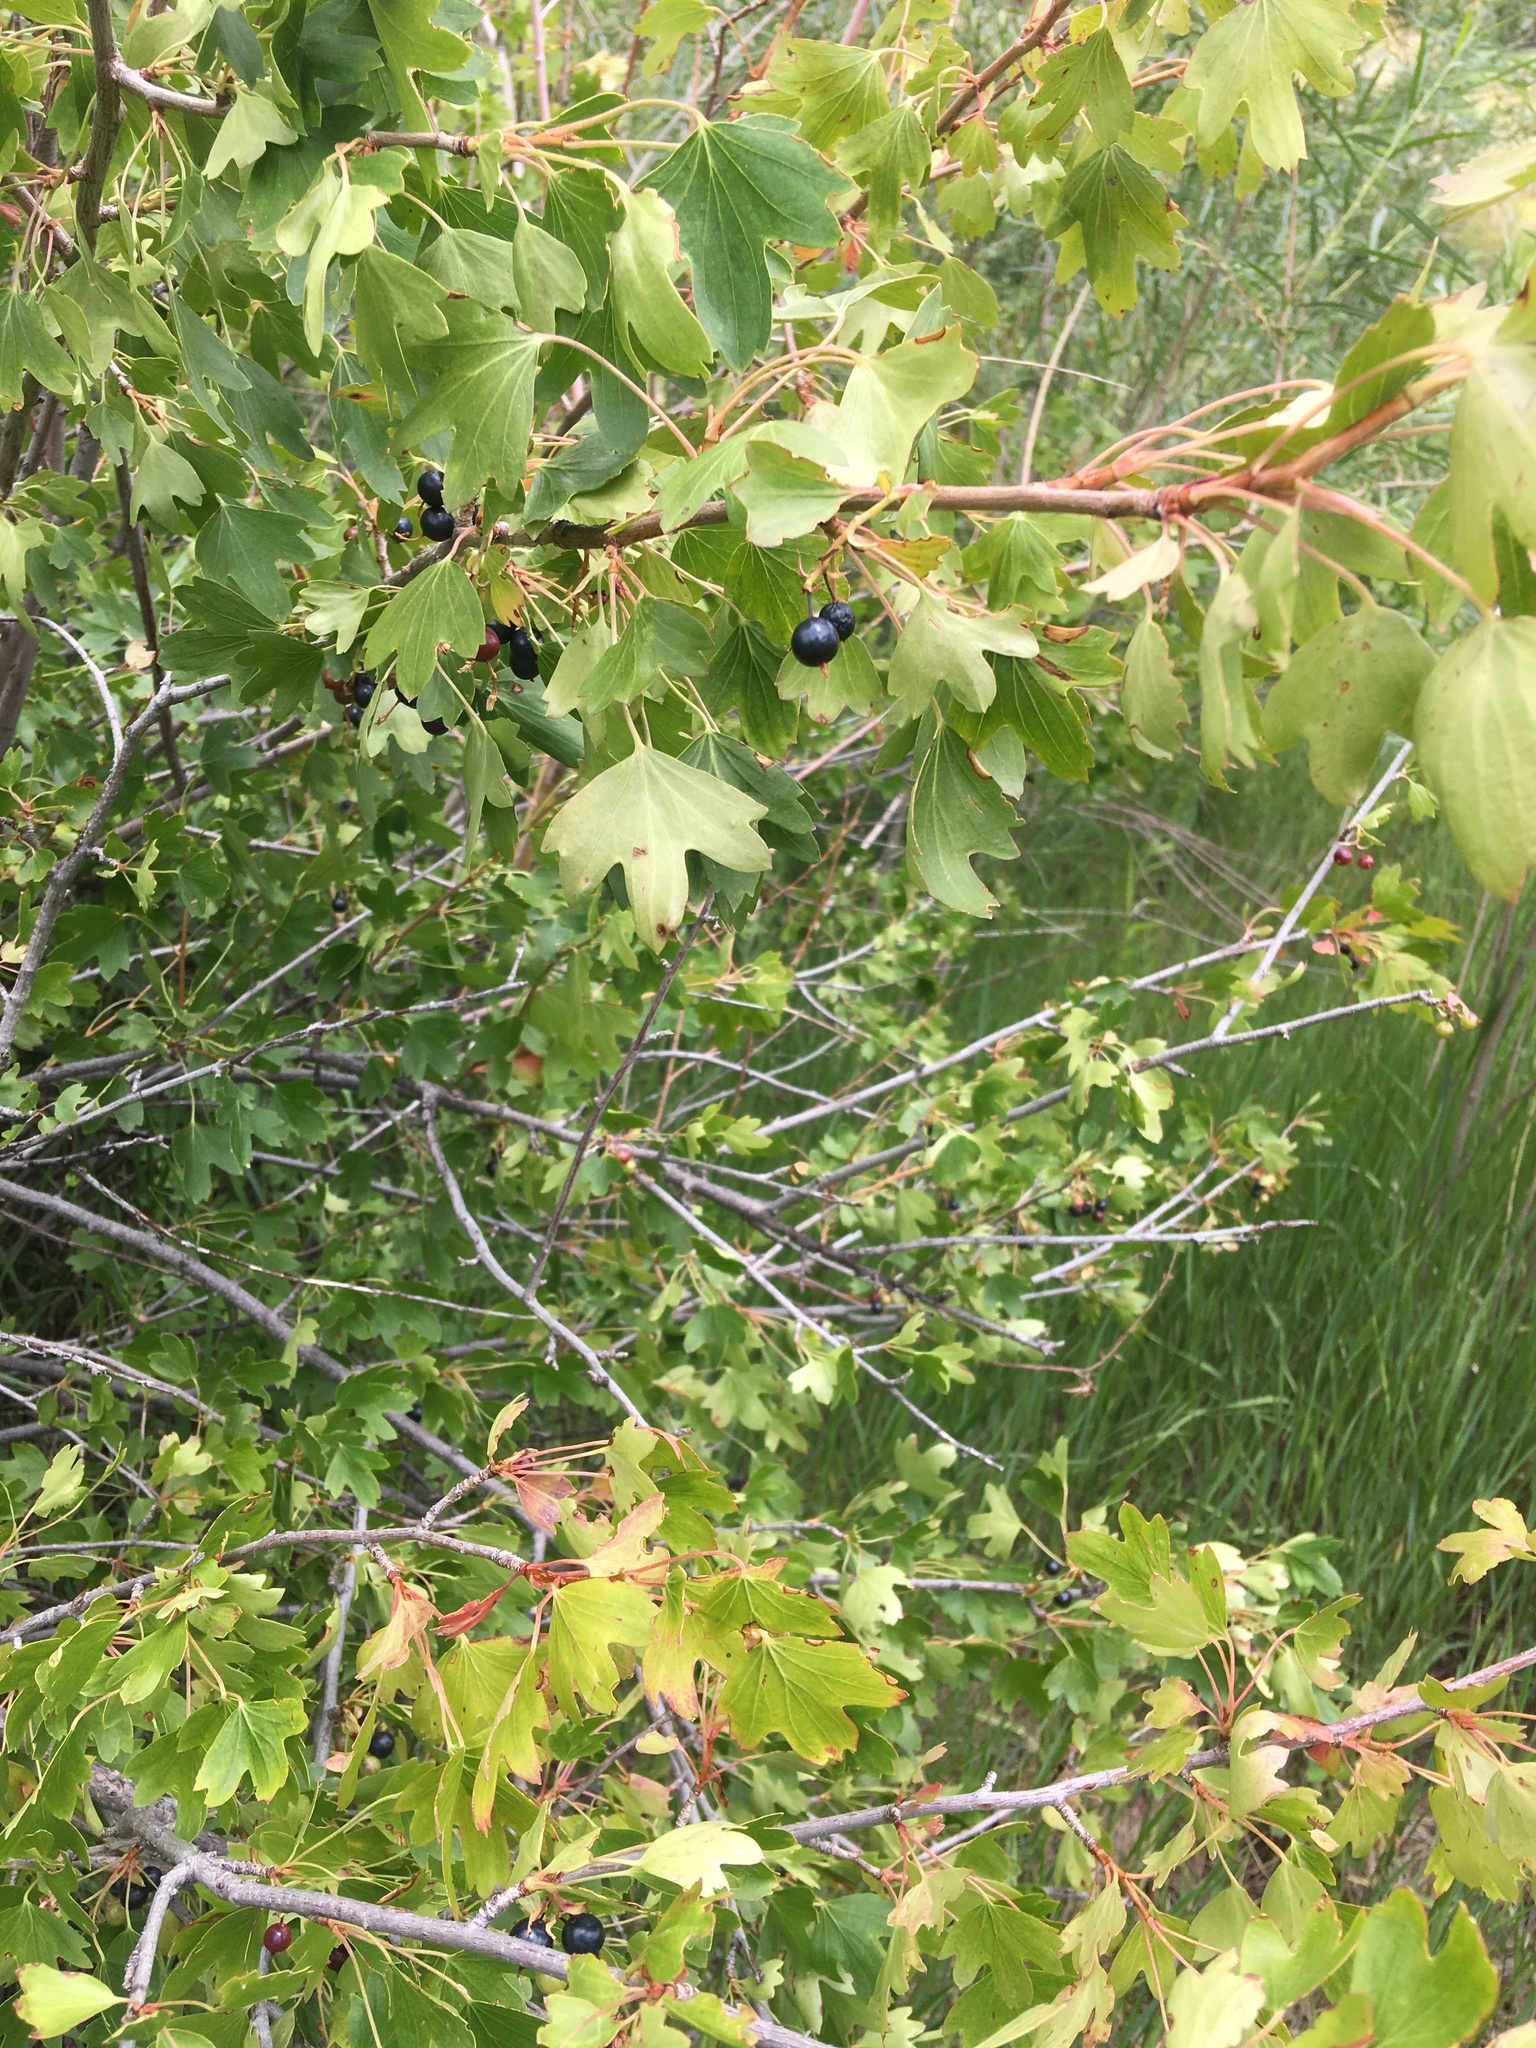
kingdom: Plantae
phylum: Tracheophyta
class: Magnoliopsida
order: Saxifragales
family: Grossulariaceae
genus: Ribes
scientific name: Ribes aureum
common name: Golden currant
